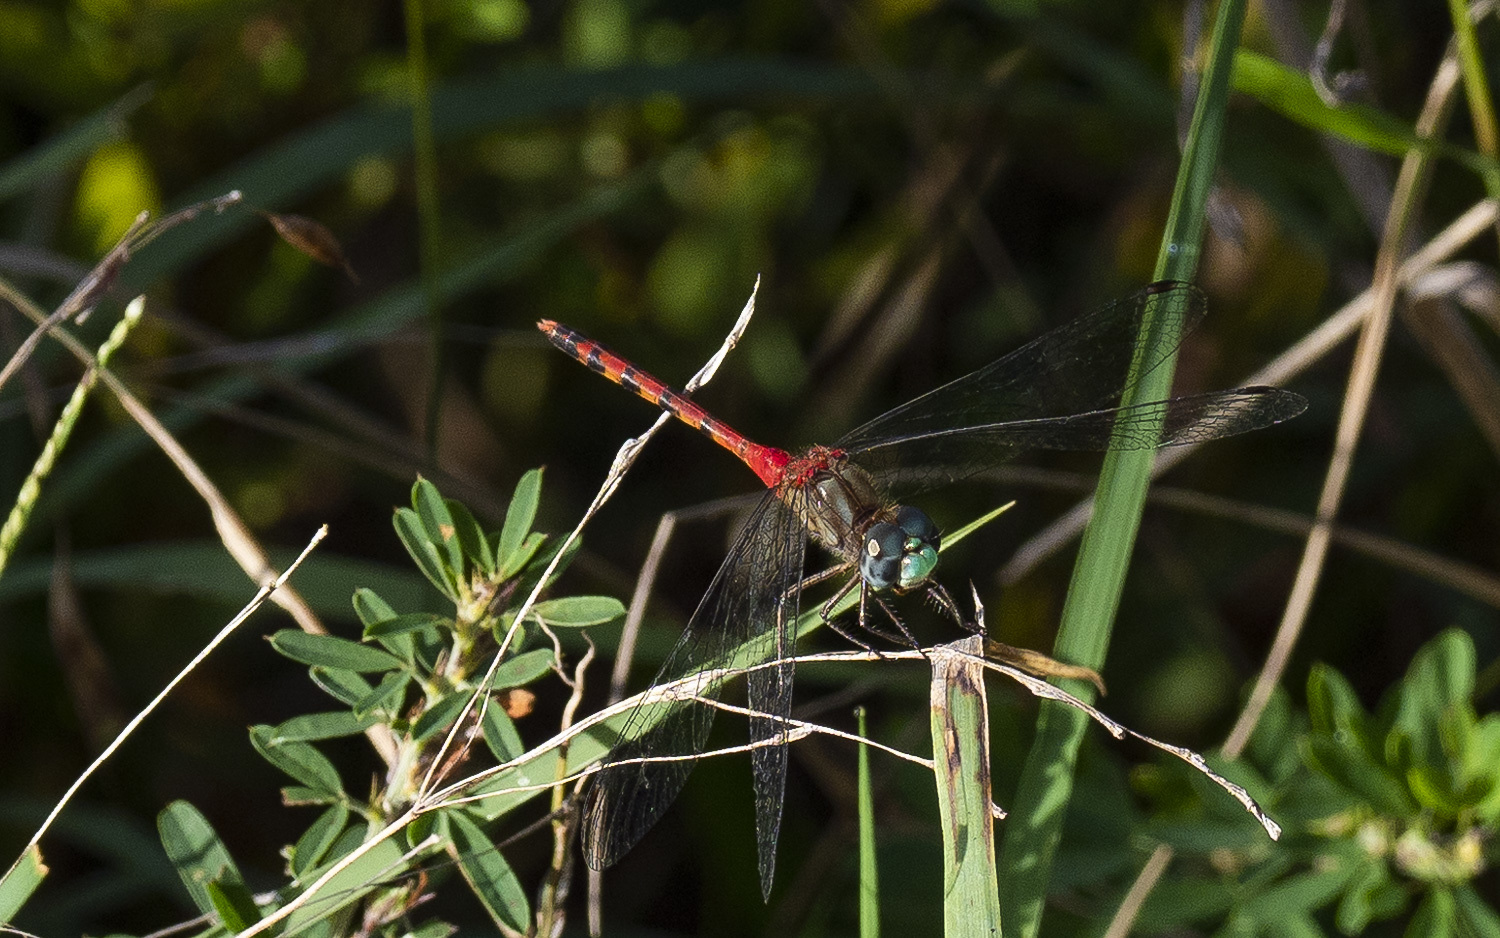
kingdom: Animalia
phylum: Arthropoda
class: Insecta
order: Odonata
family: Libellulidae
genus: Sympetrum
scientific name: Sympetrum ambiguum
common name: Blue-faced meadowhawk
